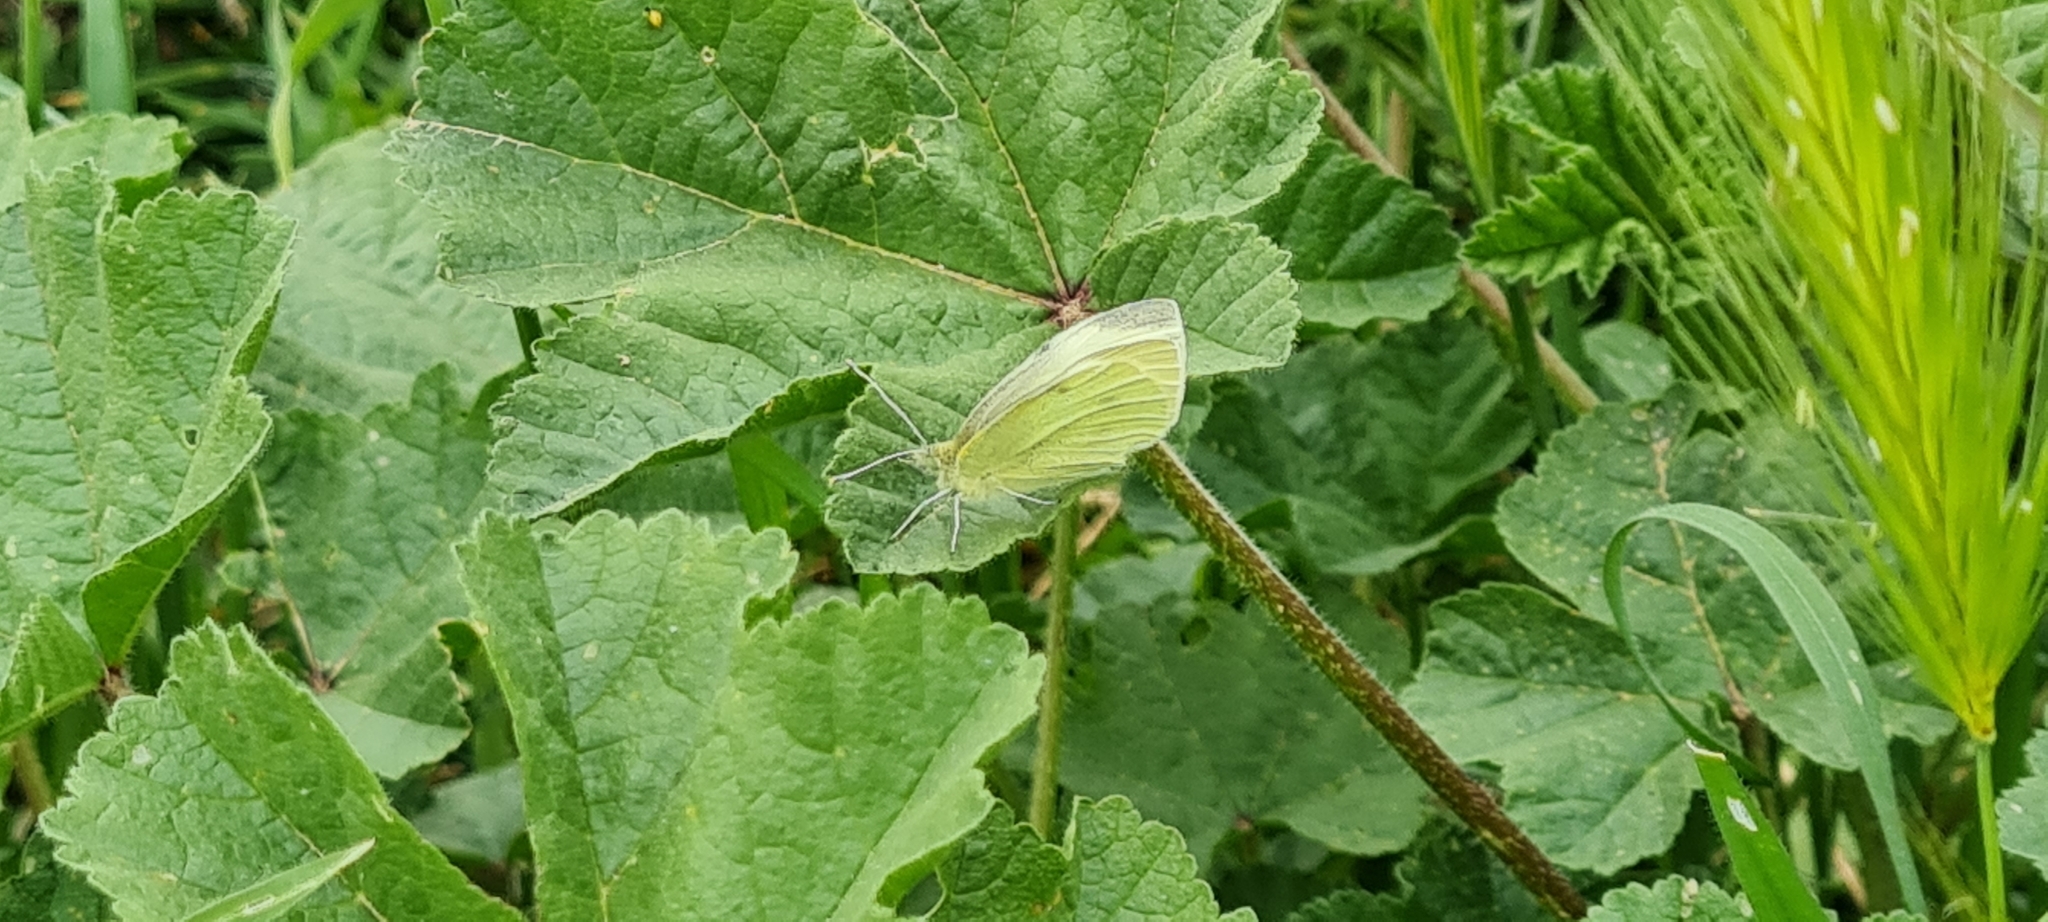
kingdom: Animalia
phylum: Arthropoda
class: Insecta
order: Lepidoptera
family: Pieridae
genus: Pieris
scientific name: Pieris rapae
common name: Small white
